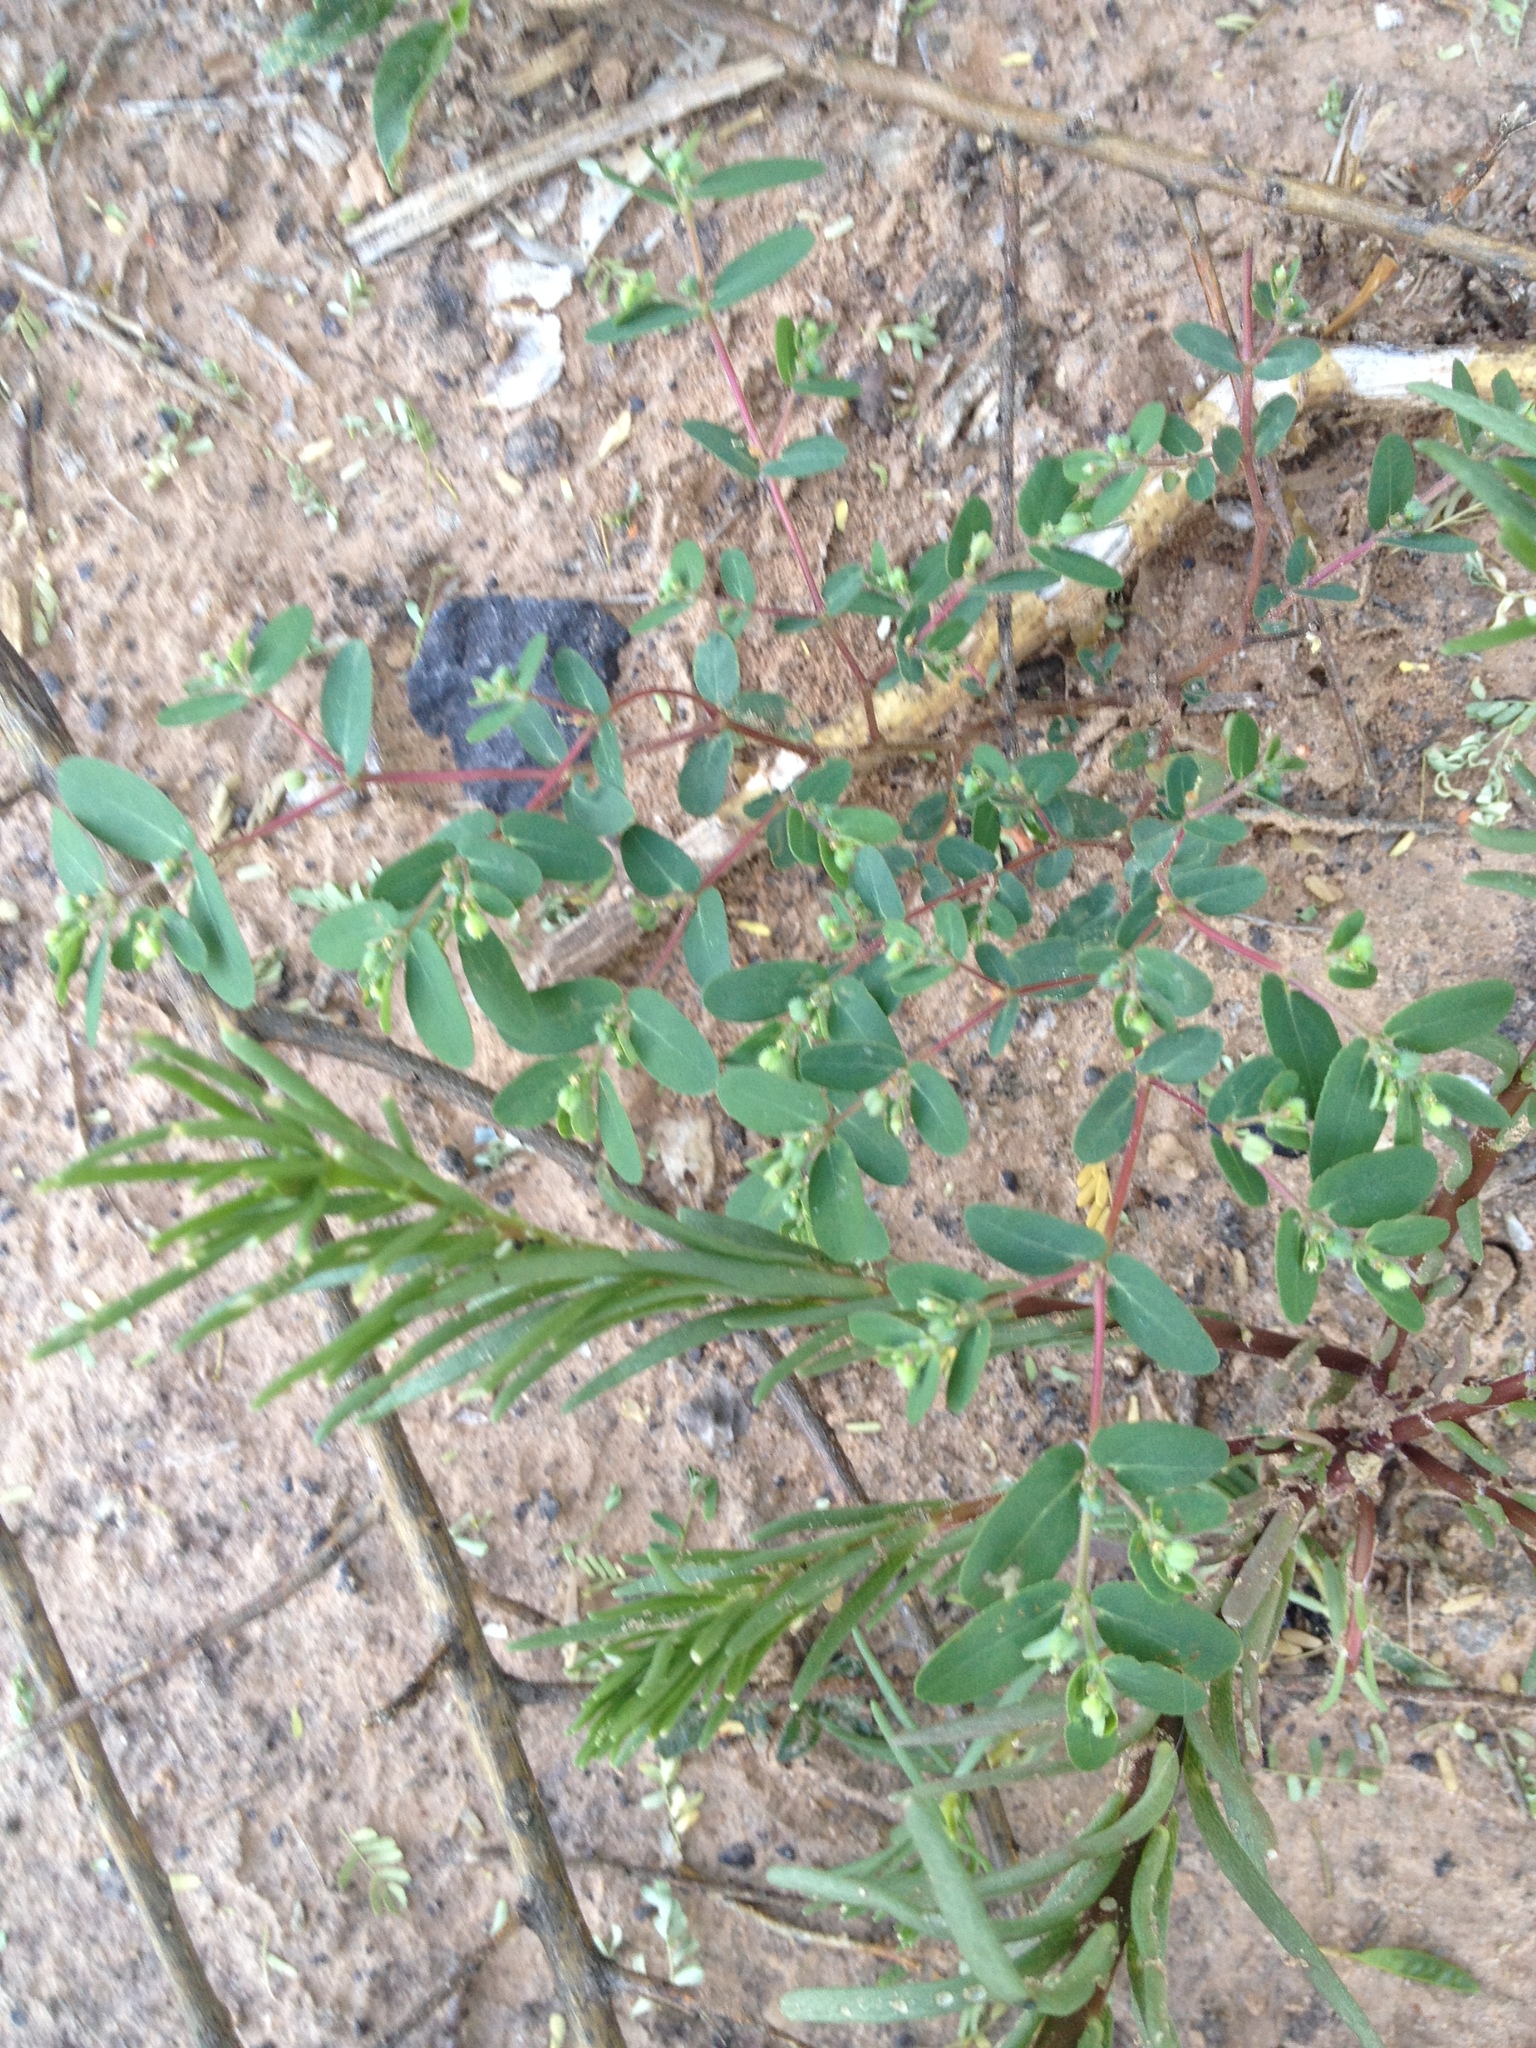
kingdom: Plantae
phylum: Tracheophyta
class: Magnoliopsida
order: Malpighiales
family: Euphorbiaceae
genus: Euphorbia
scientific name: Euphorbia eichleri
